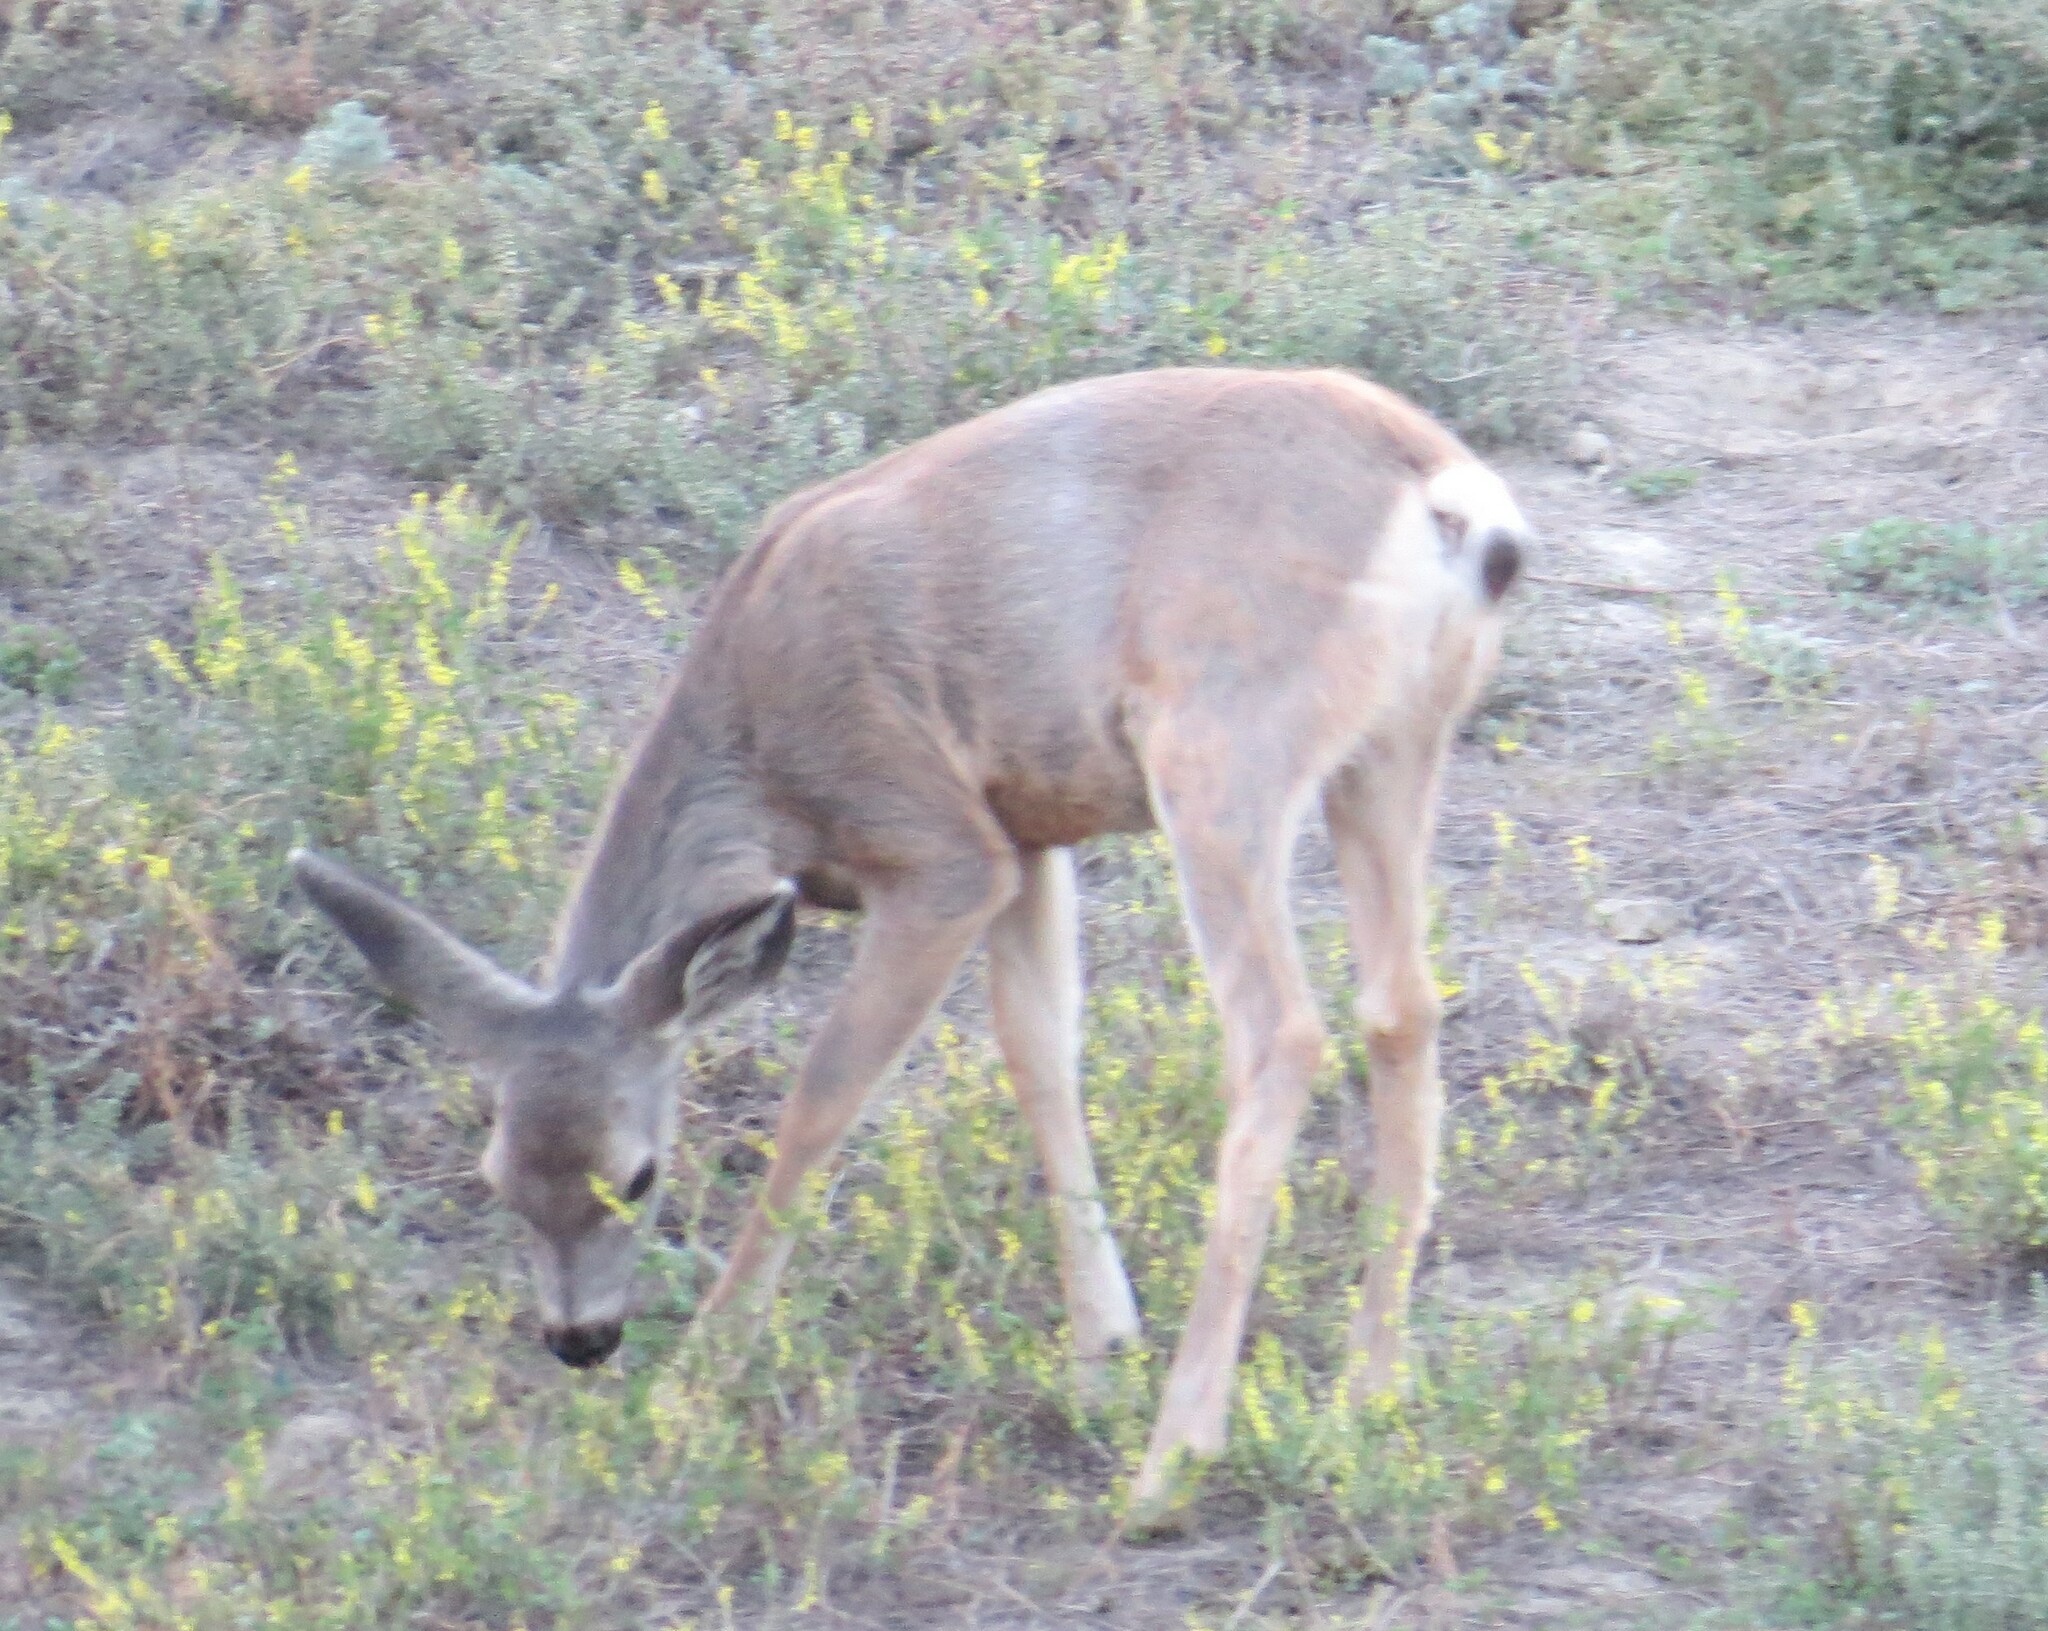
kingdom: Animalia
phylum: Chordata
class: Mammalia
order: Artiodactyla
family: Cervidae
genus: Odocoileus
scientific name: Odocoileus hemionus
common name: Mule deer
